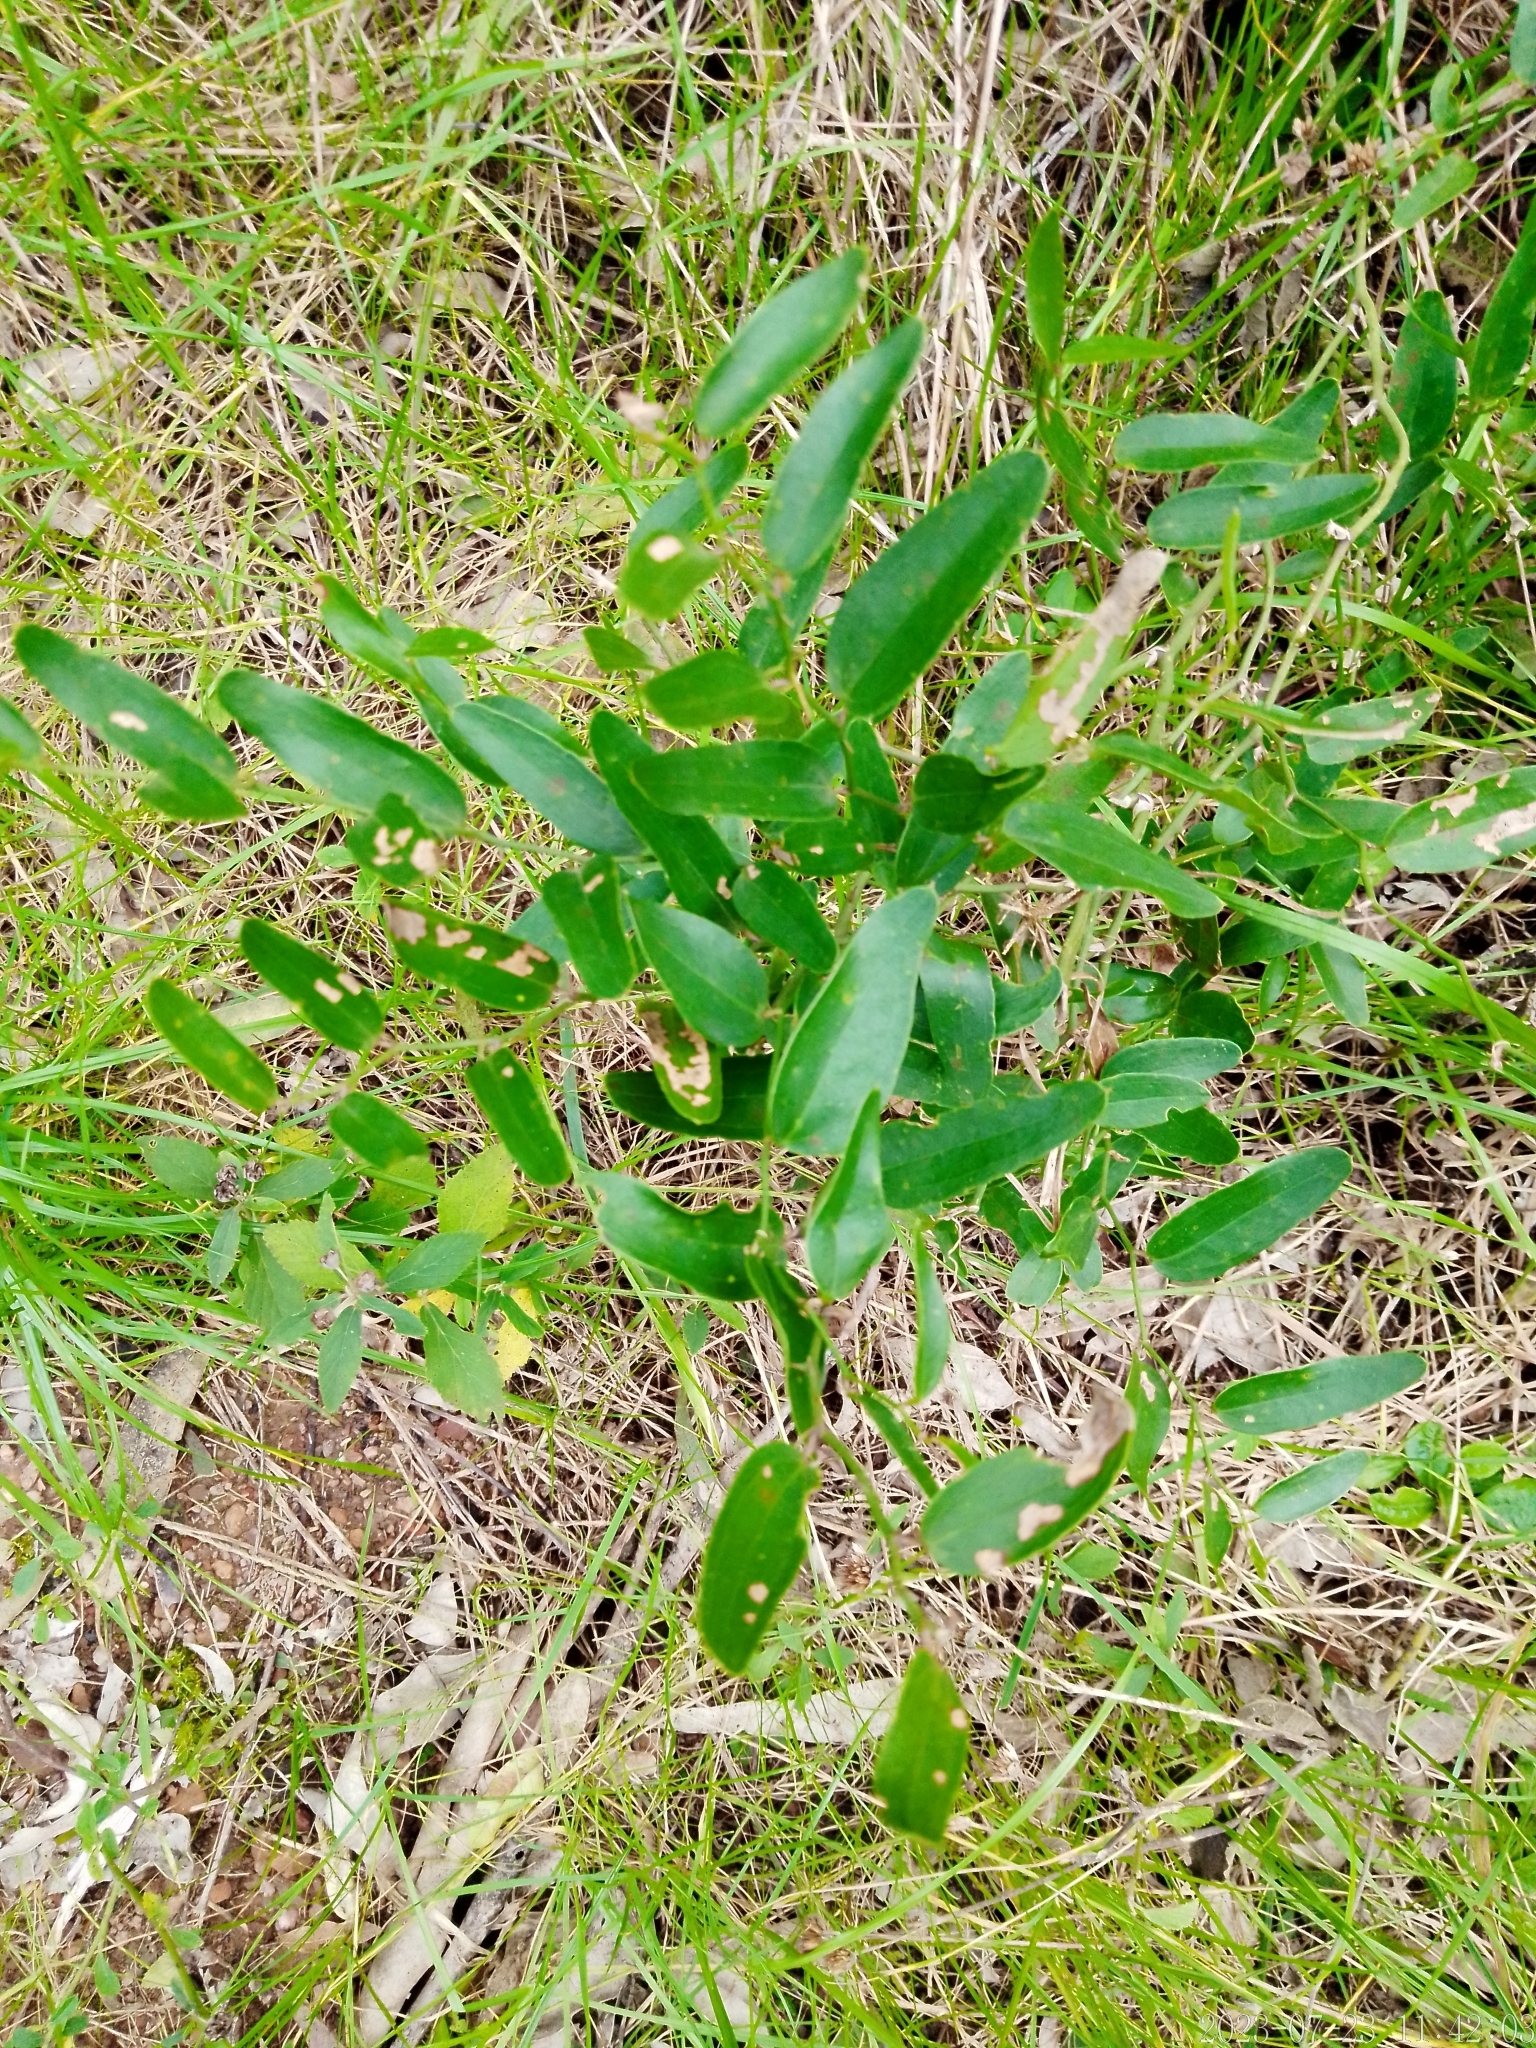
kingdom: Plantae
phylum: Tracheophyta
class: Liliopsida
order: Liliales
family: Smilacaceae
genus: Smilax
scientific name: Smilax campestris
